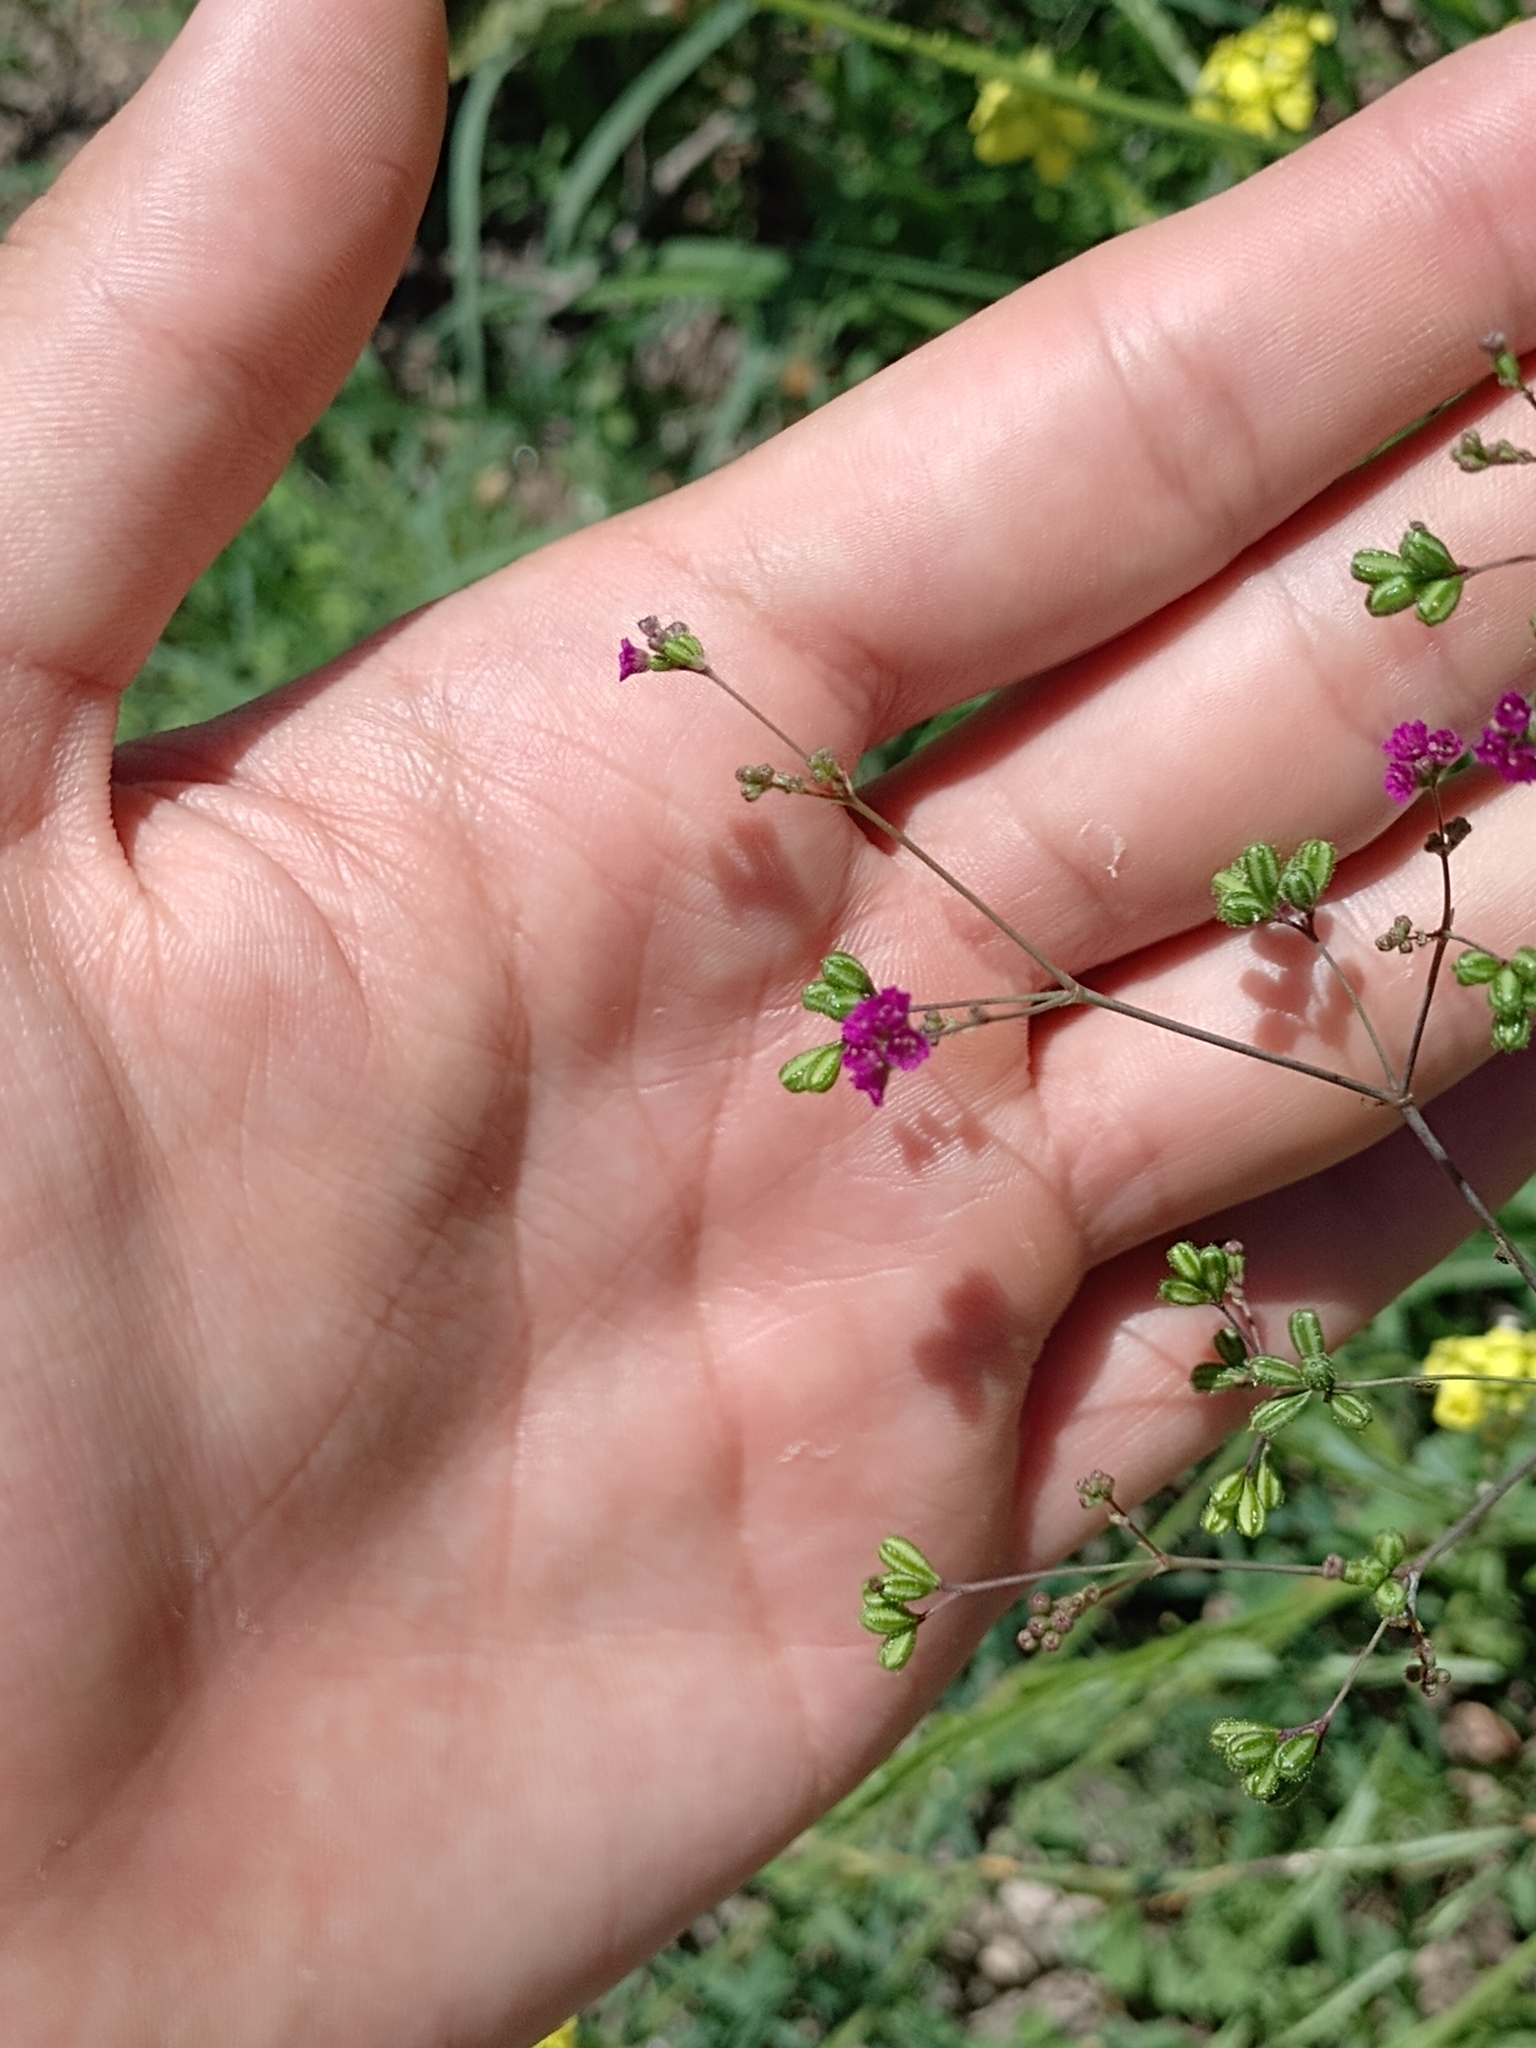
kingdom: Plantae
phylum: Tracheophyta
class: Magnoliopsida
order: Caryophyllales
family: Nyctaginaceae
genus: Boerhavia
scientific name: Boerhavia diffusa
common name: Red spiderling
